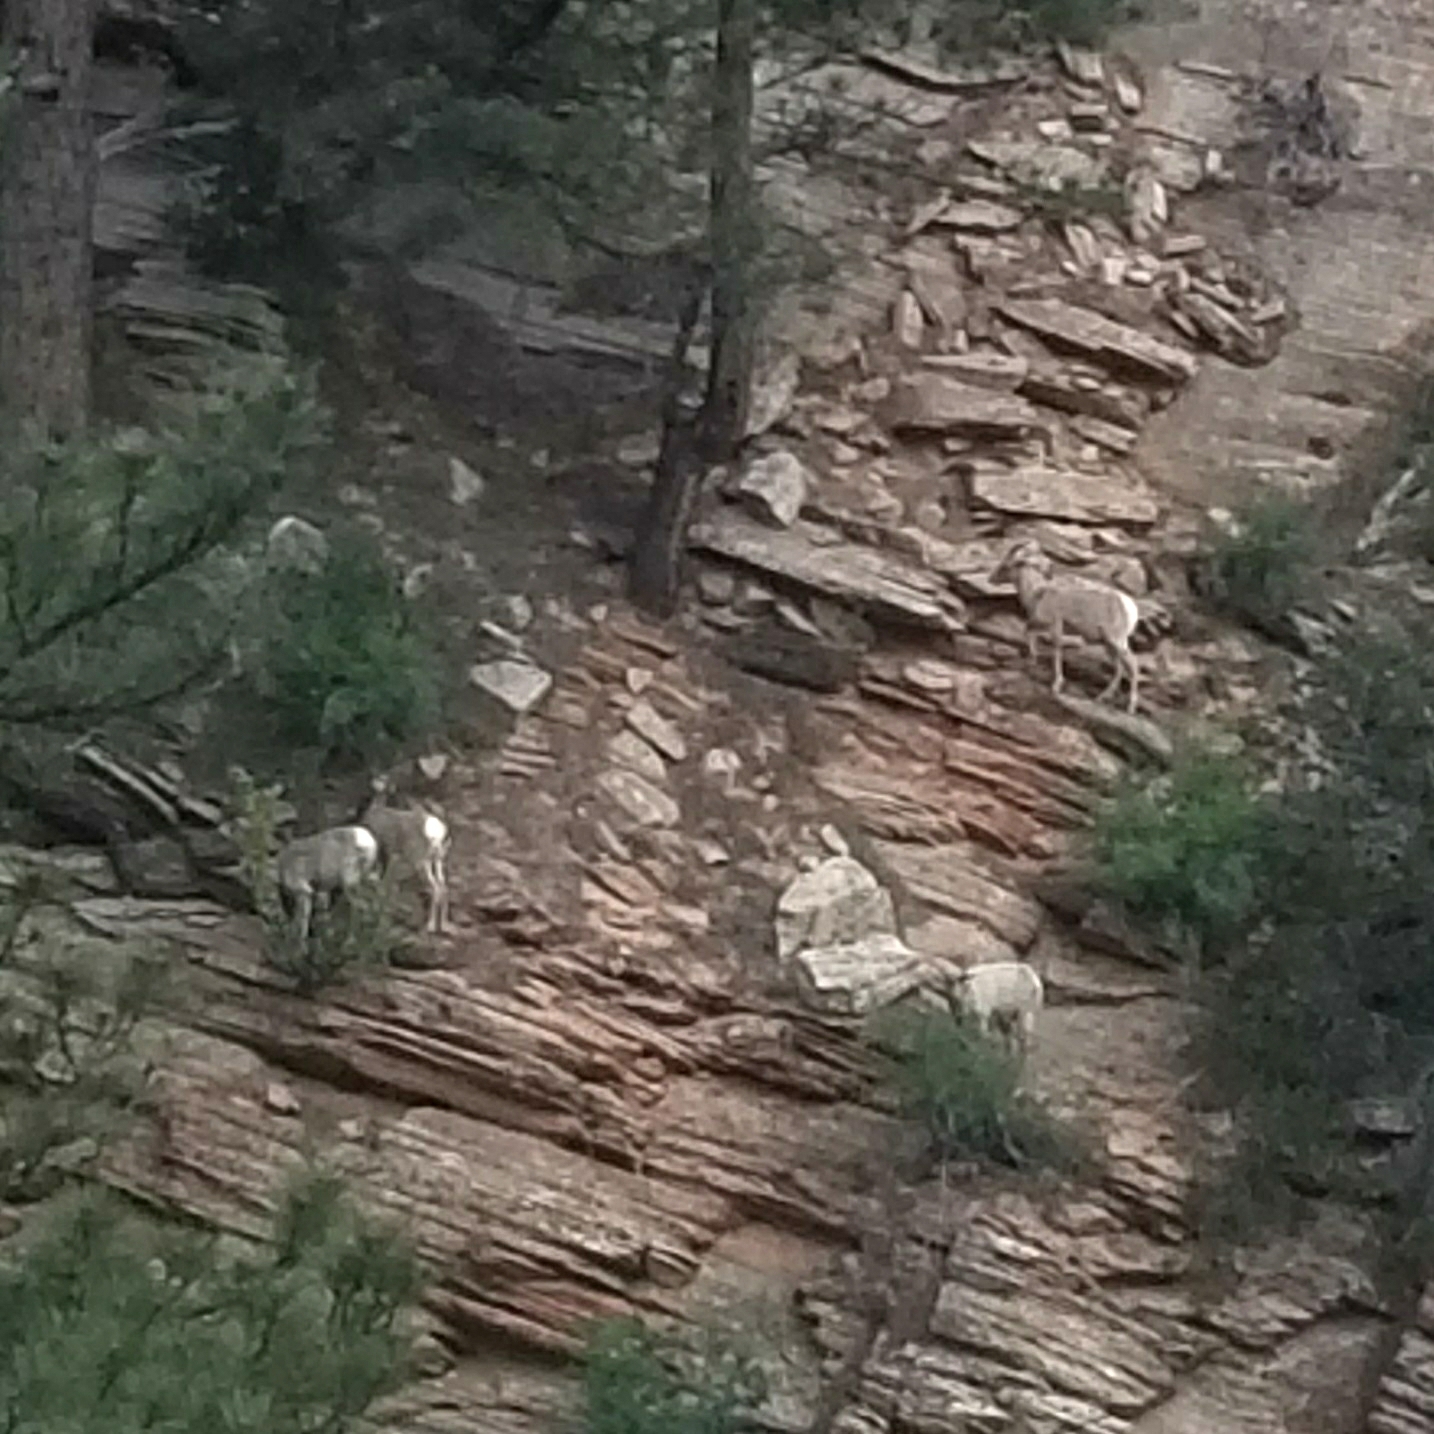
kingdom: Animalia
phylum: Chordata
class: Mammalia
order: Artiodactyla
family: Bovidae
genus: Ovis
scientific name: Ovis canadensis
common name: Bighorn sheep
